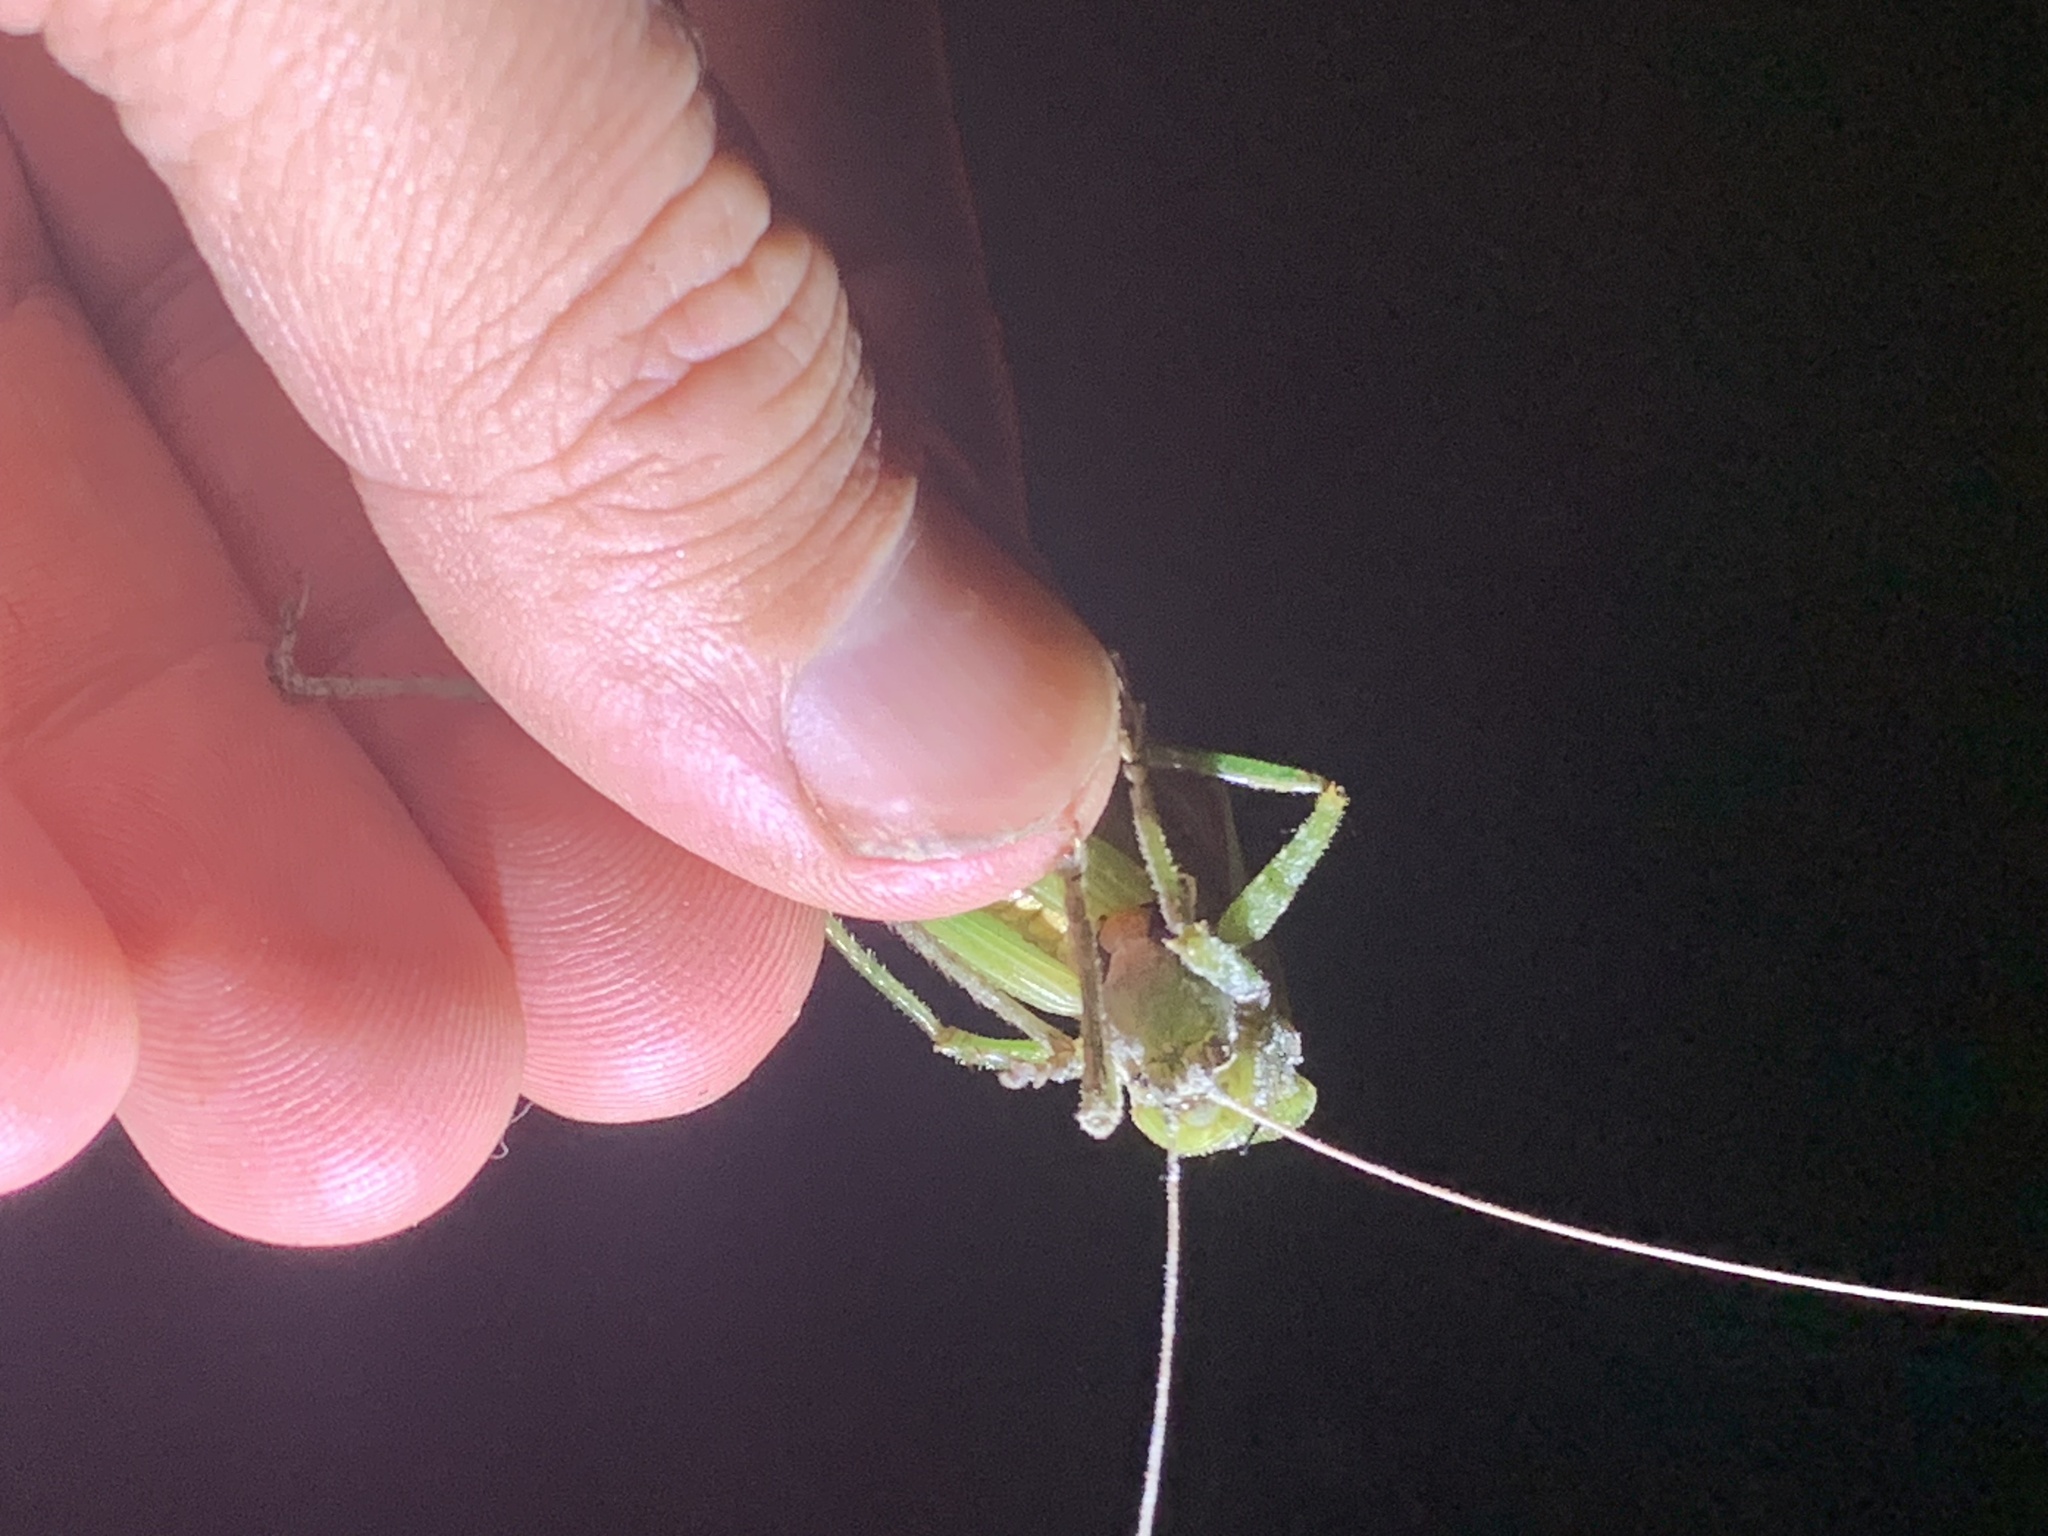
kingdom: Animalia
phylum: Arthropoda
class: Insecta
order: Orthoptera
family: Tettigoniidae
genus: Austrosalomona
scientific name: Austrosalomona falcata
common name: Olive-green coastal katydid
